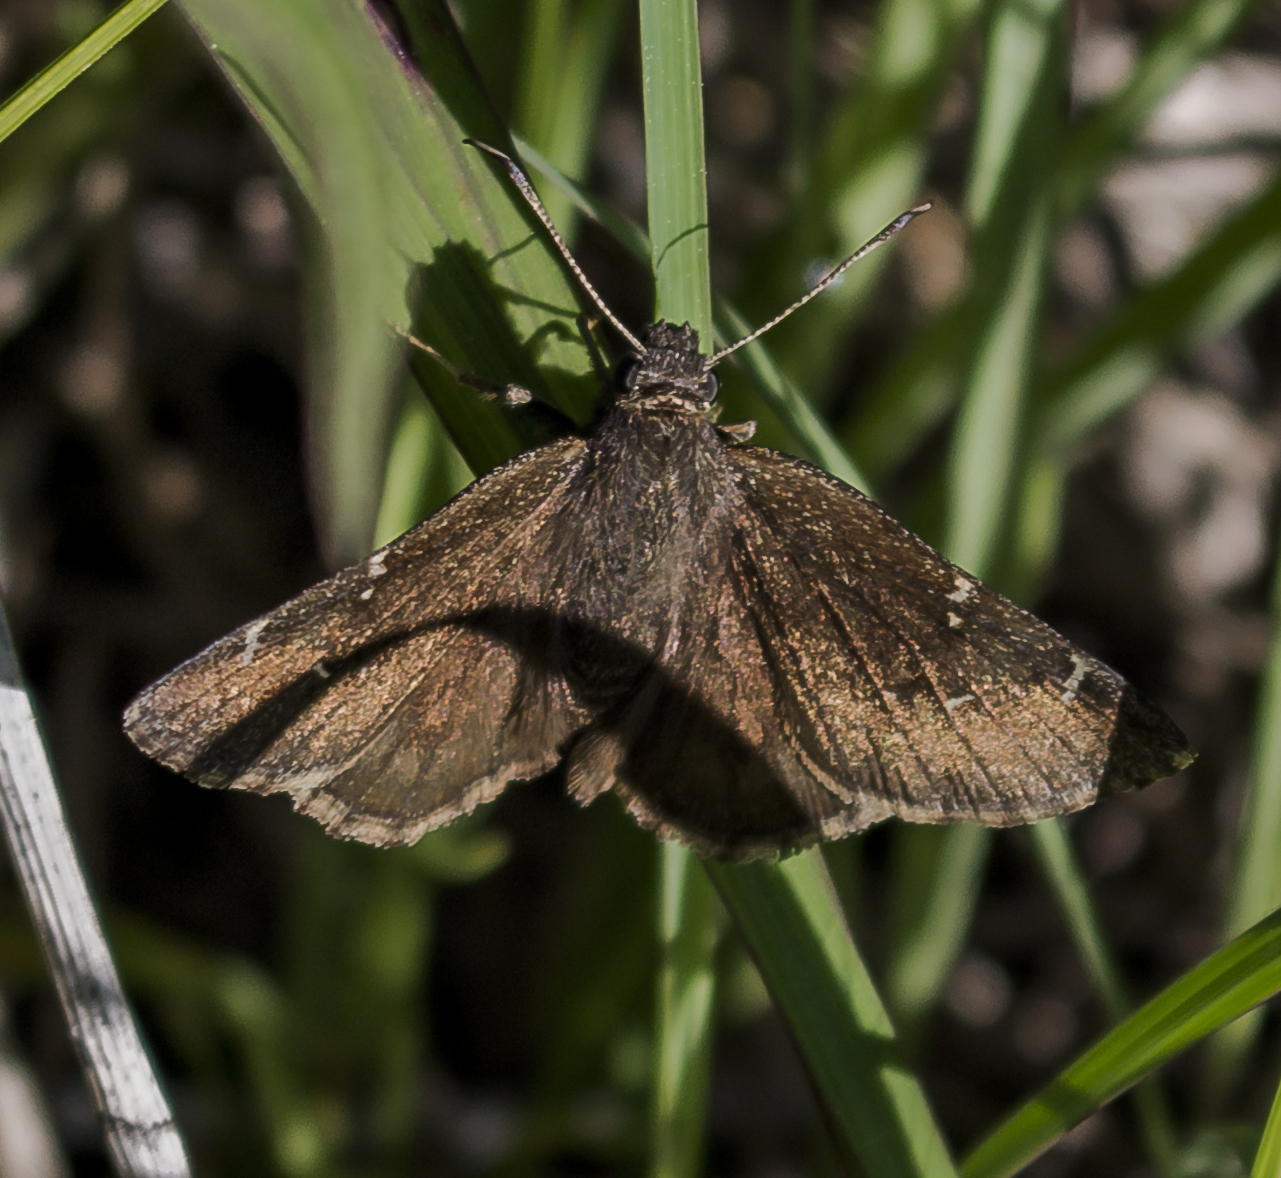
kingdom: Animalia
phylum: Arthropoda
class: Insecta
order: Lepidoptera
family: Hesperiidae
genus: Thorybes
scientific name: Thorybes pylades
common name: Northern cloudywing
